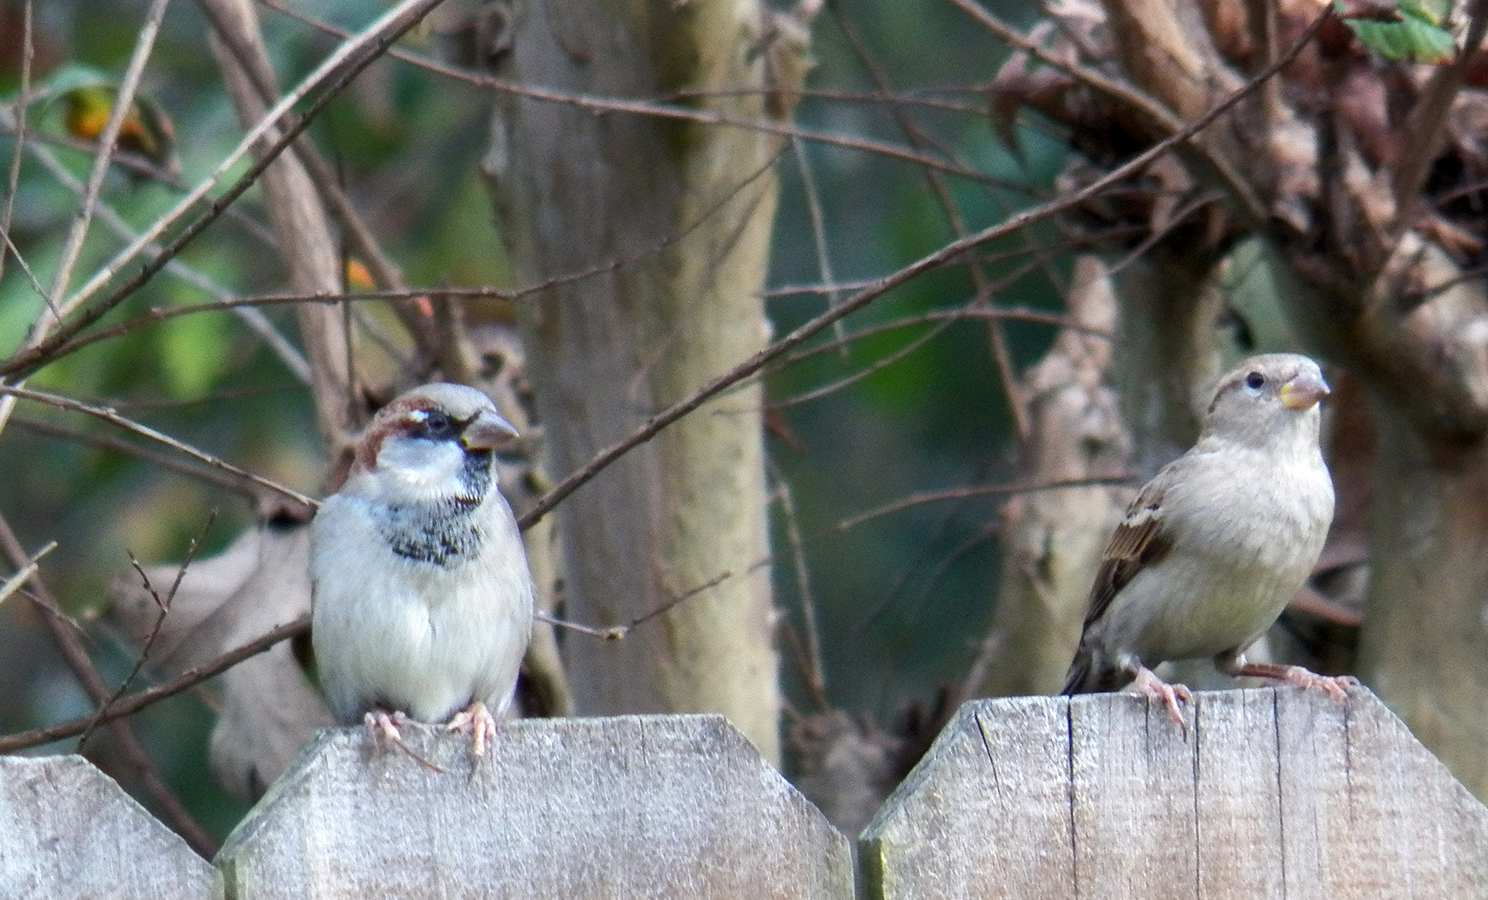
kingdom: Animalia
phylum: Chordata
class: Aves
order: Passeriformes
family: Passeridae
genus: Passer
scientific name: Passer domesticus
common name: House sparrow
